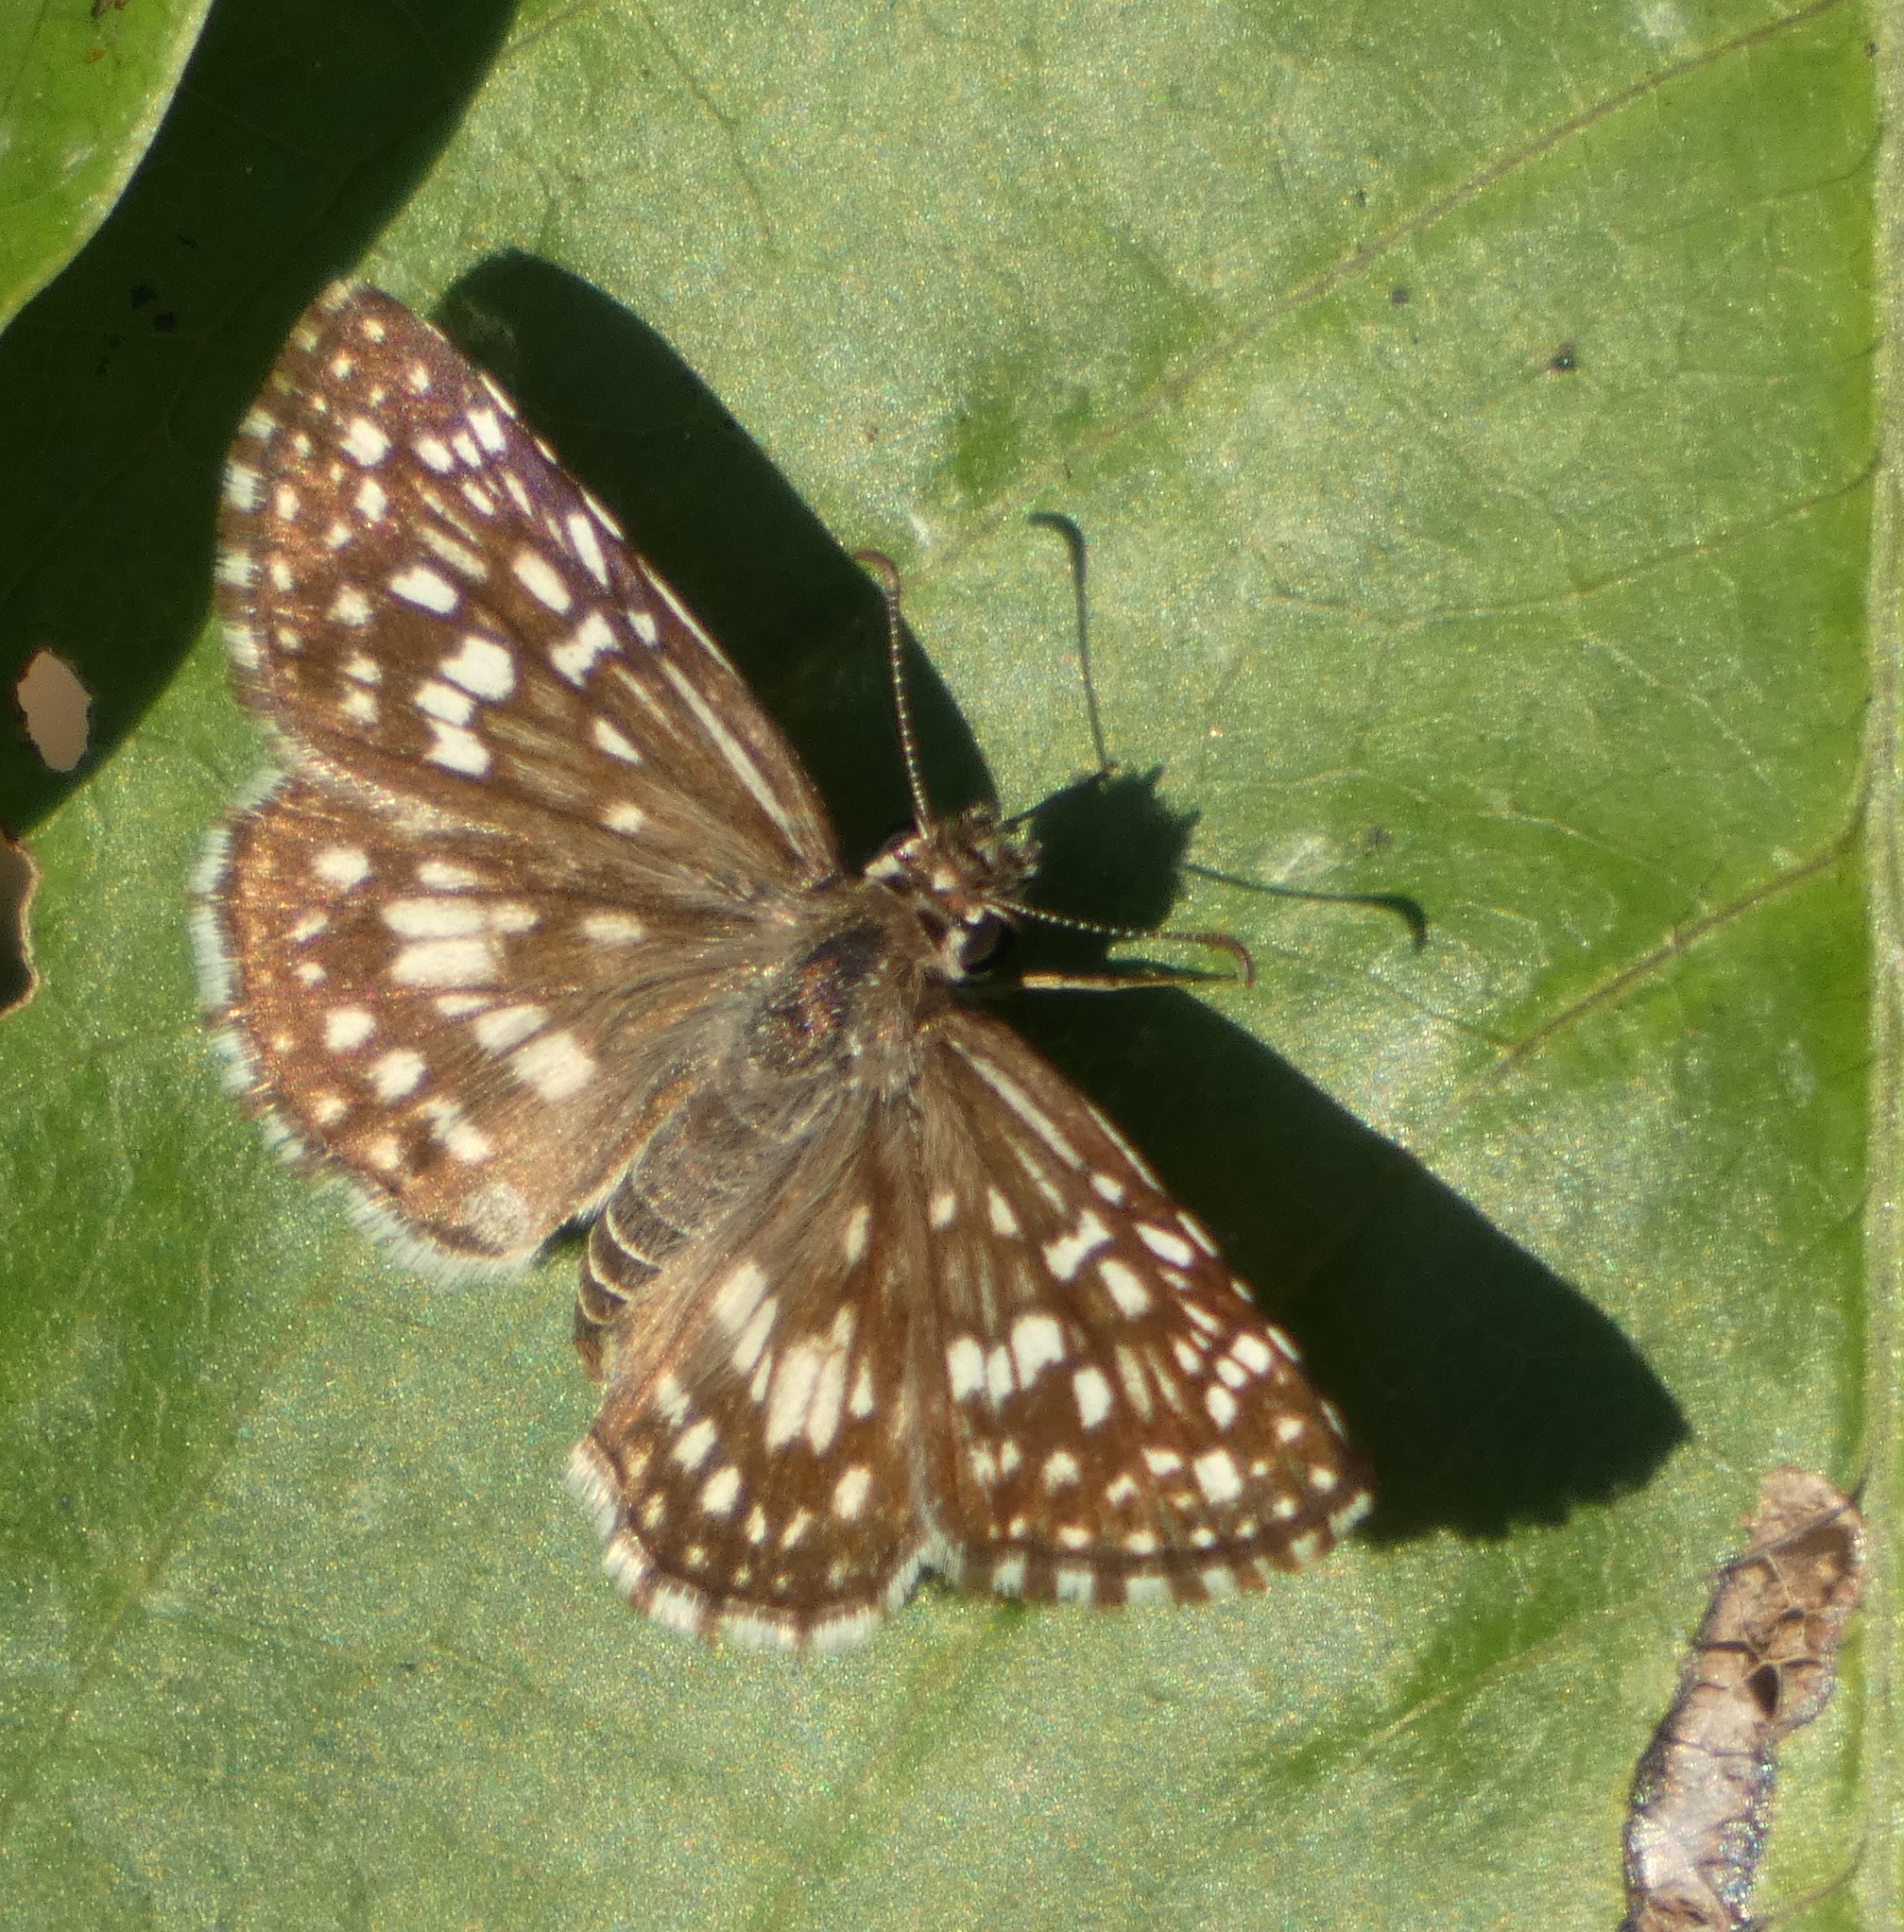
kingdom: Animalia
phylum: Arthropoda
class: Insecta
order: Lepidoptera
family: Hesperiidae
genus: Pyrgus
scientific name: Pyrgus oileus
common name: Tropical checkered-skipper
